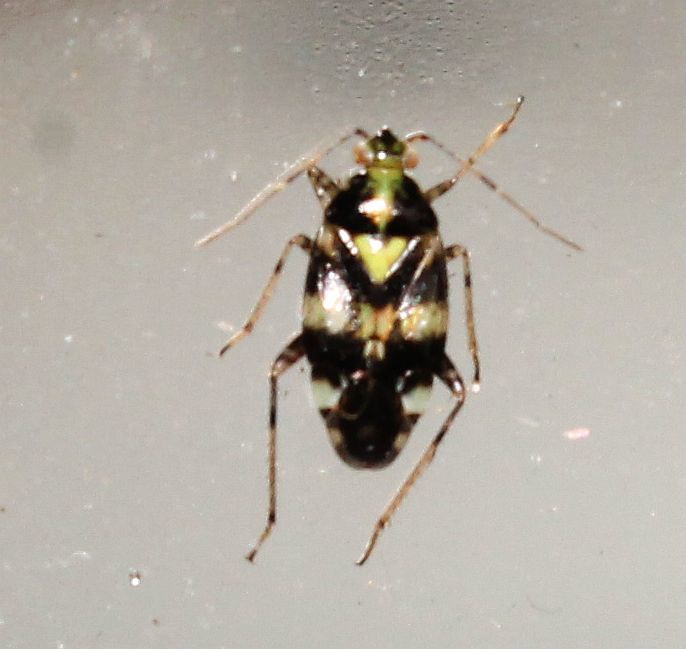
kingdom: Animalia
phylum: Arthropoda
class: Insecta
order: Hemiptera
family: Miridae
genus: Liocoris
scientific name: Liocoris tripustulatus
